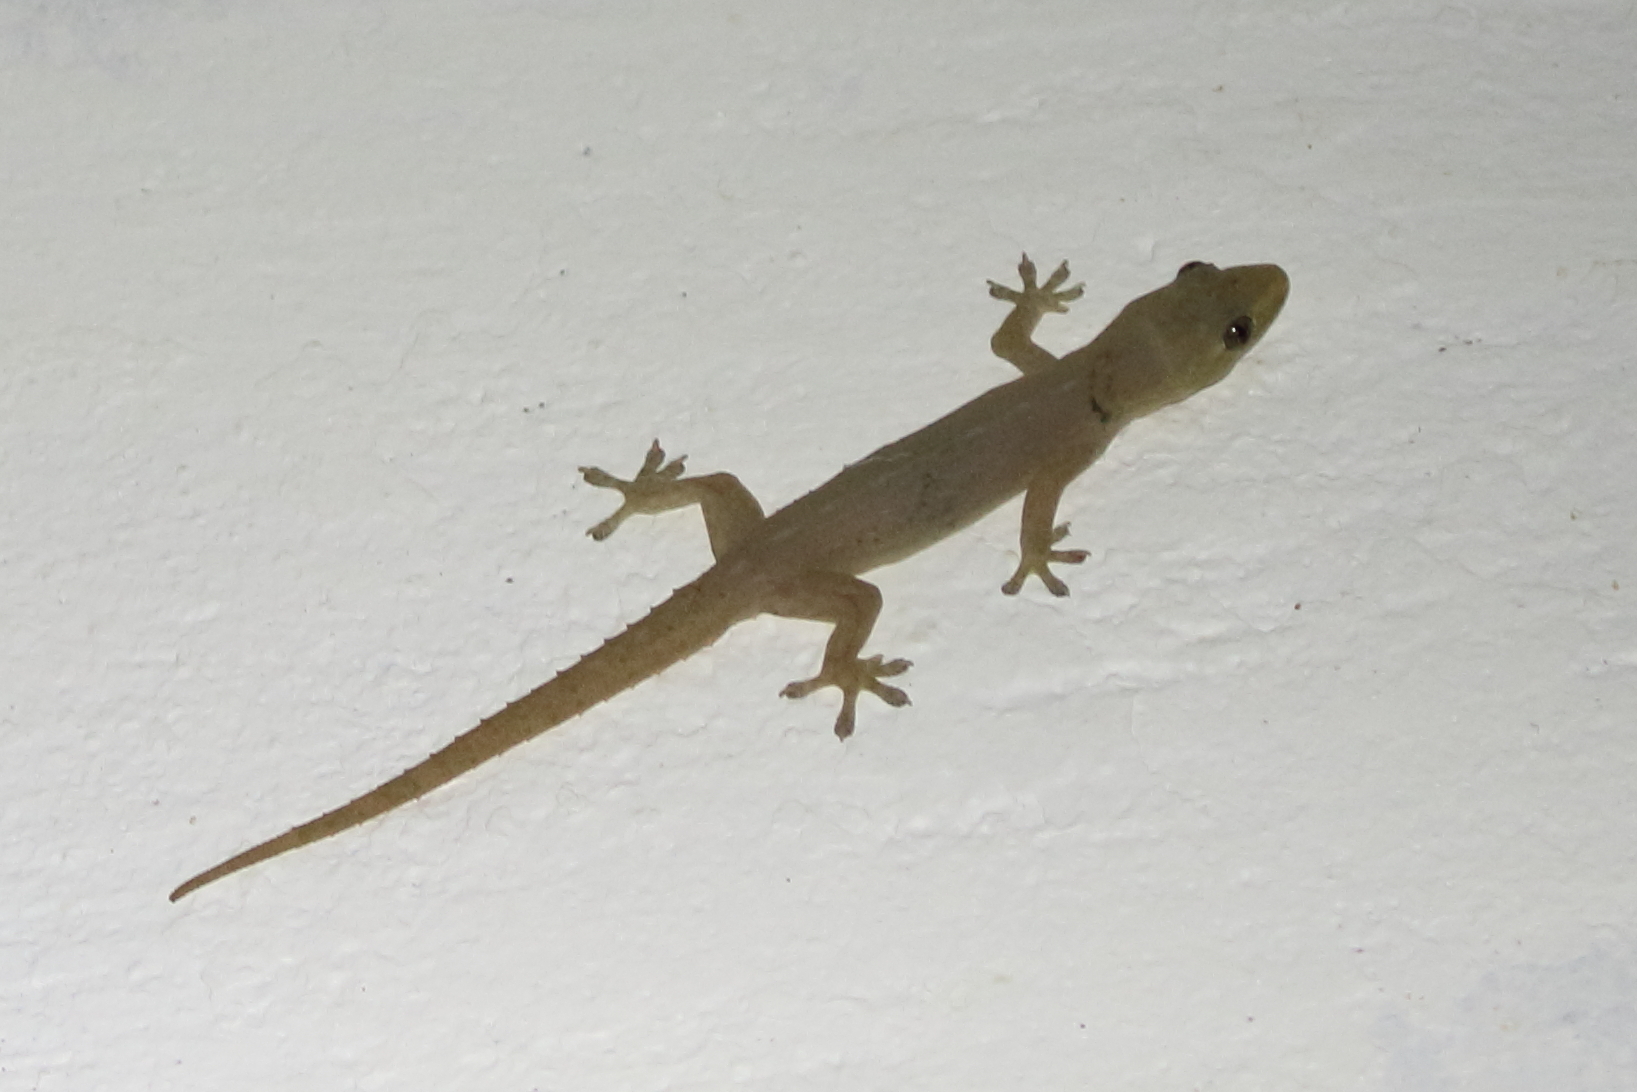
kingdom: Animalia
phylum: Chordata
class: Squamata
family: Gekkonidae
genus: Hemidactylus
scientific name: Hemidactylus frenatus
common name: Common house gecko
